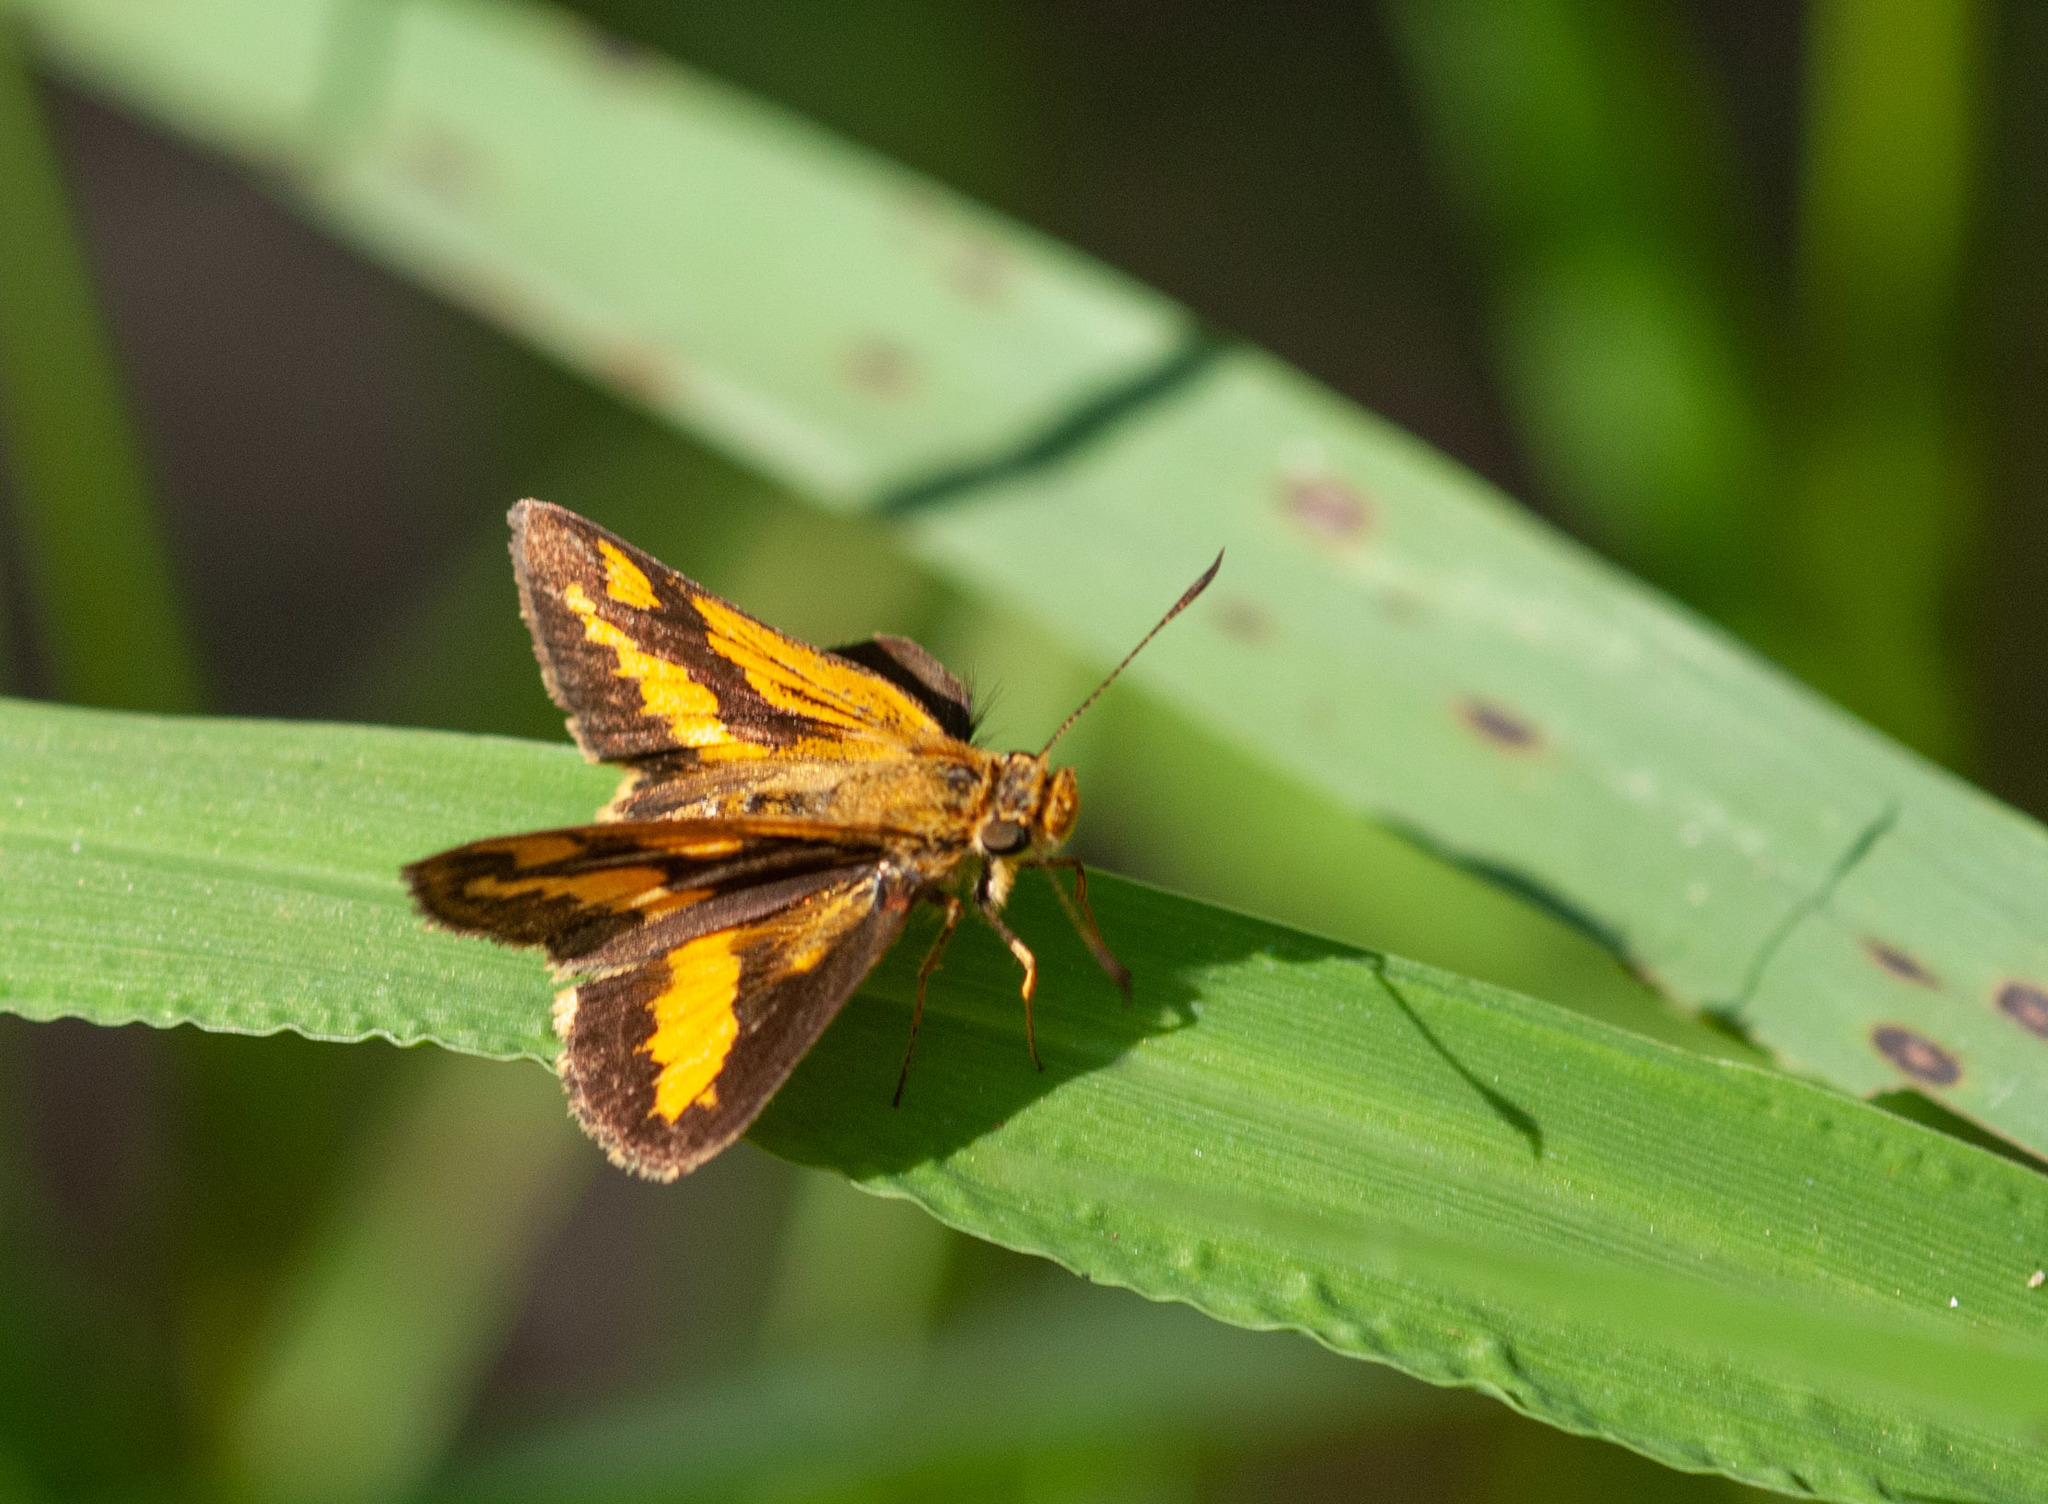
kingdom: Animalia
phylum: Arthropoda
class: Insecta
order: Lepidoptera
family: Hesperiidae
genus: Arrhenes
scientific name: Arrhenes marnas
